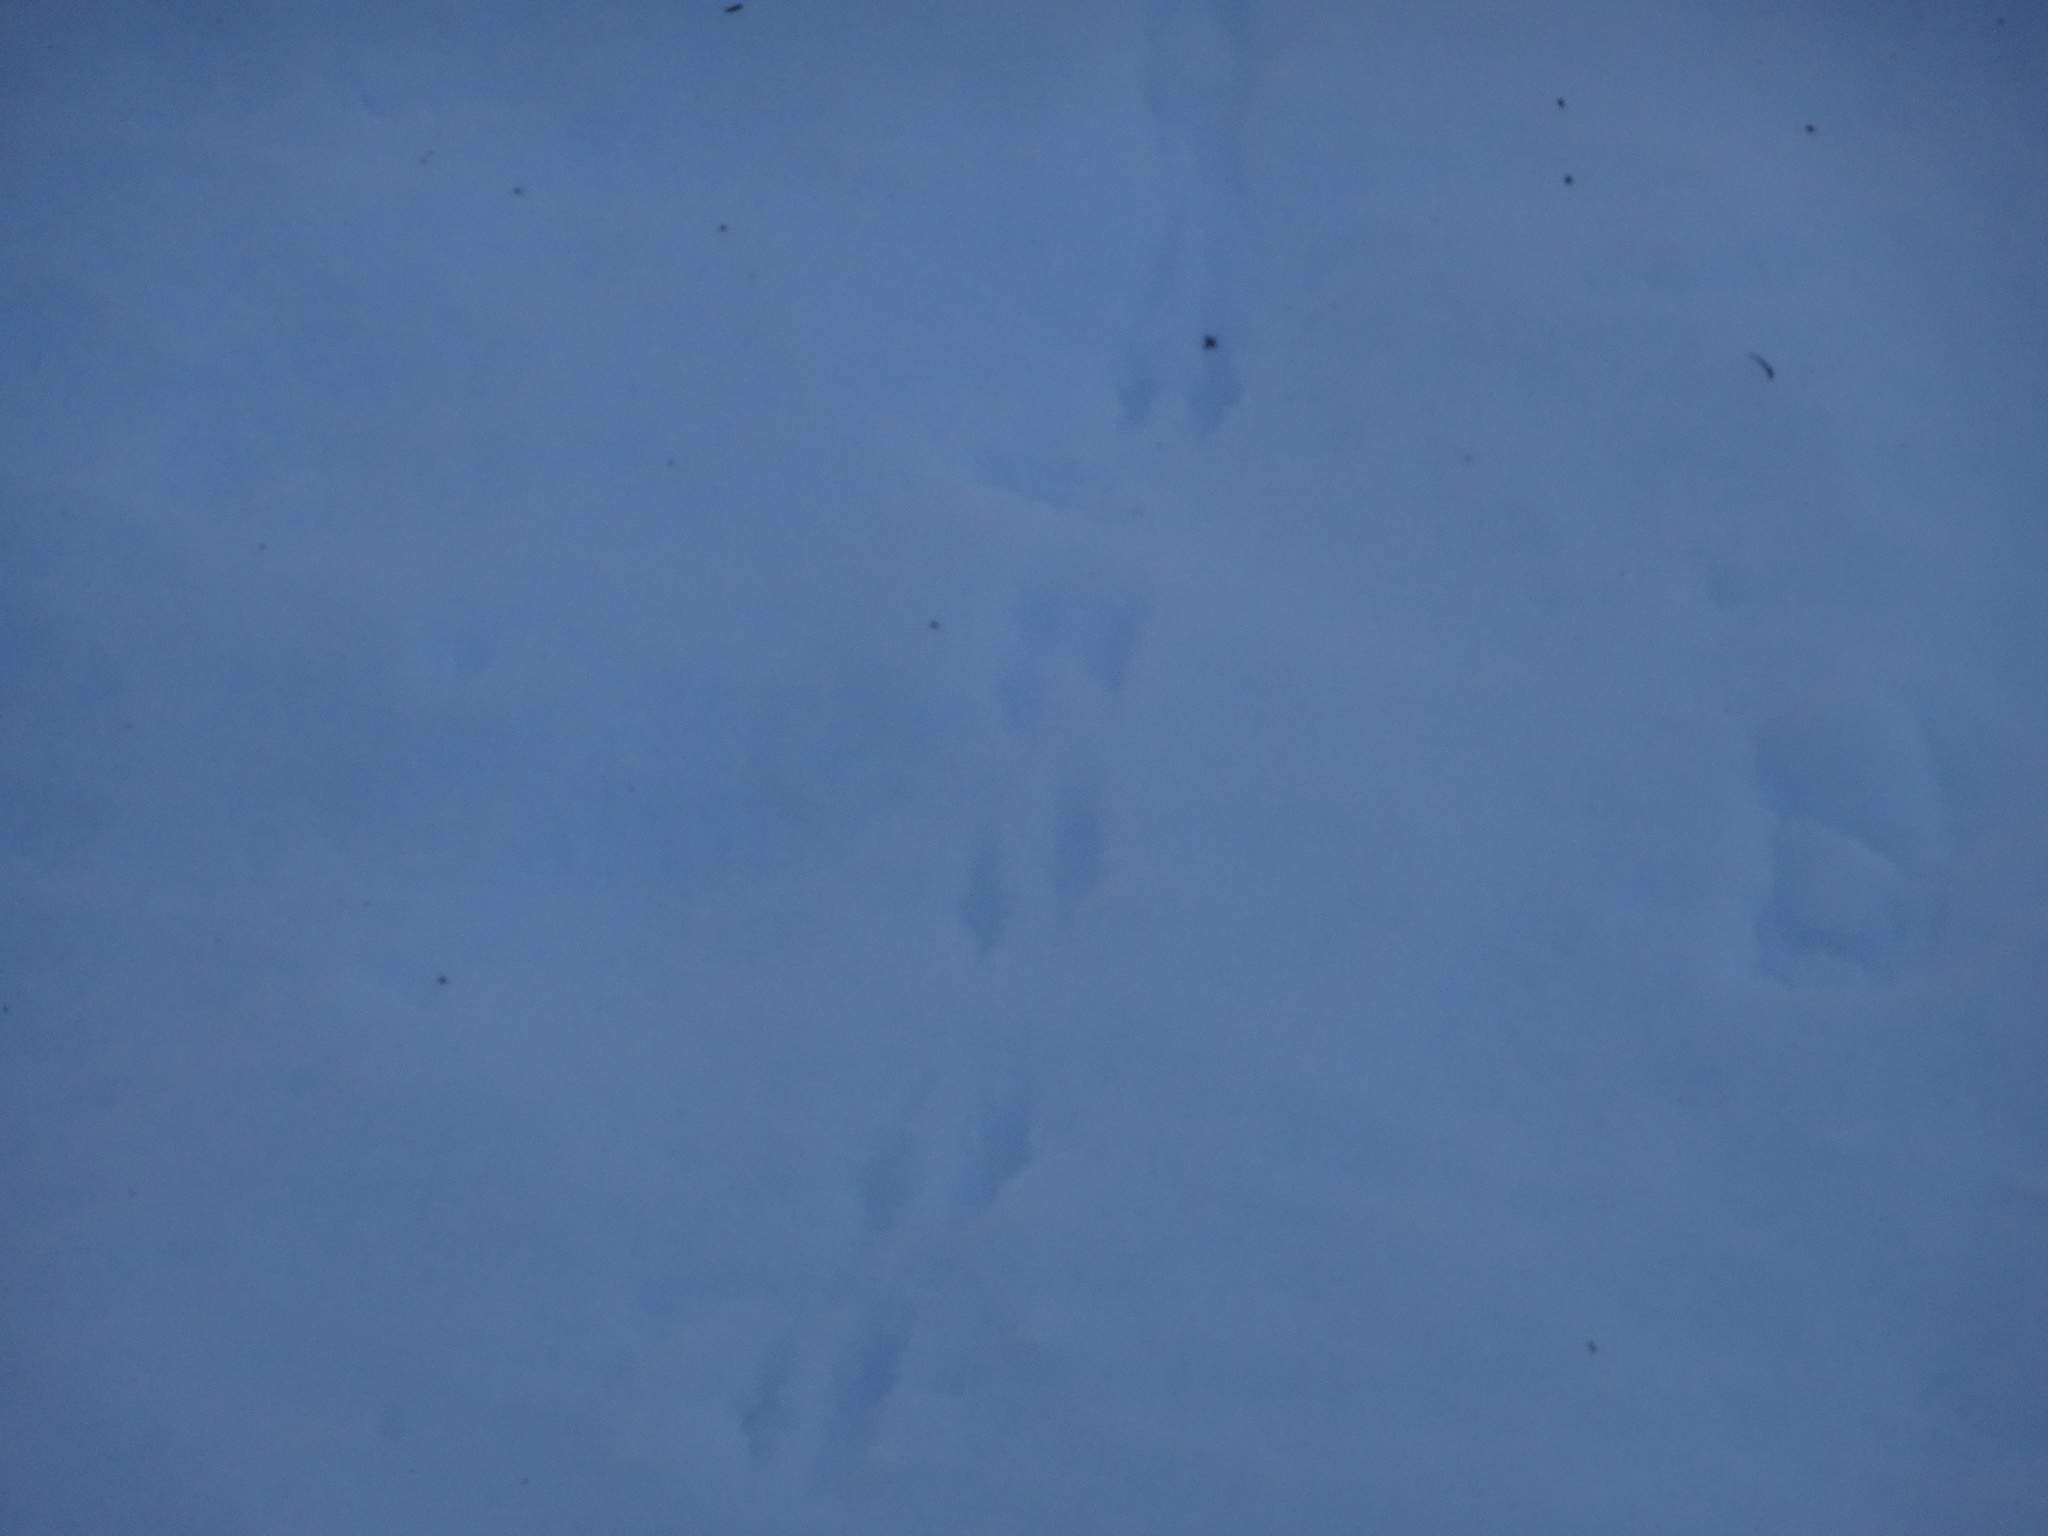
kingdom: Animalia
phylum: Chordata
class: Aves
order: Passeriformes
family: Passerellidae
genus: Junco
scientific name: Junco hyemalis
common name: Dark-eyed junco
